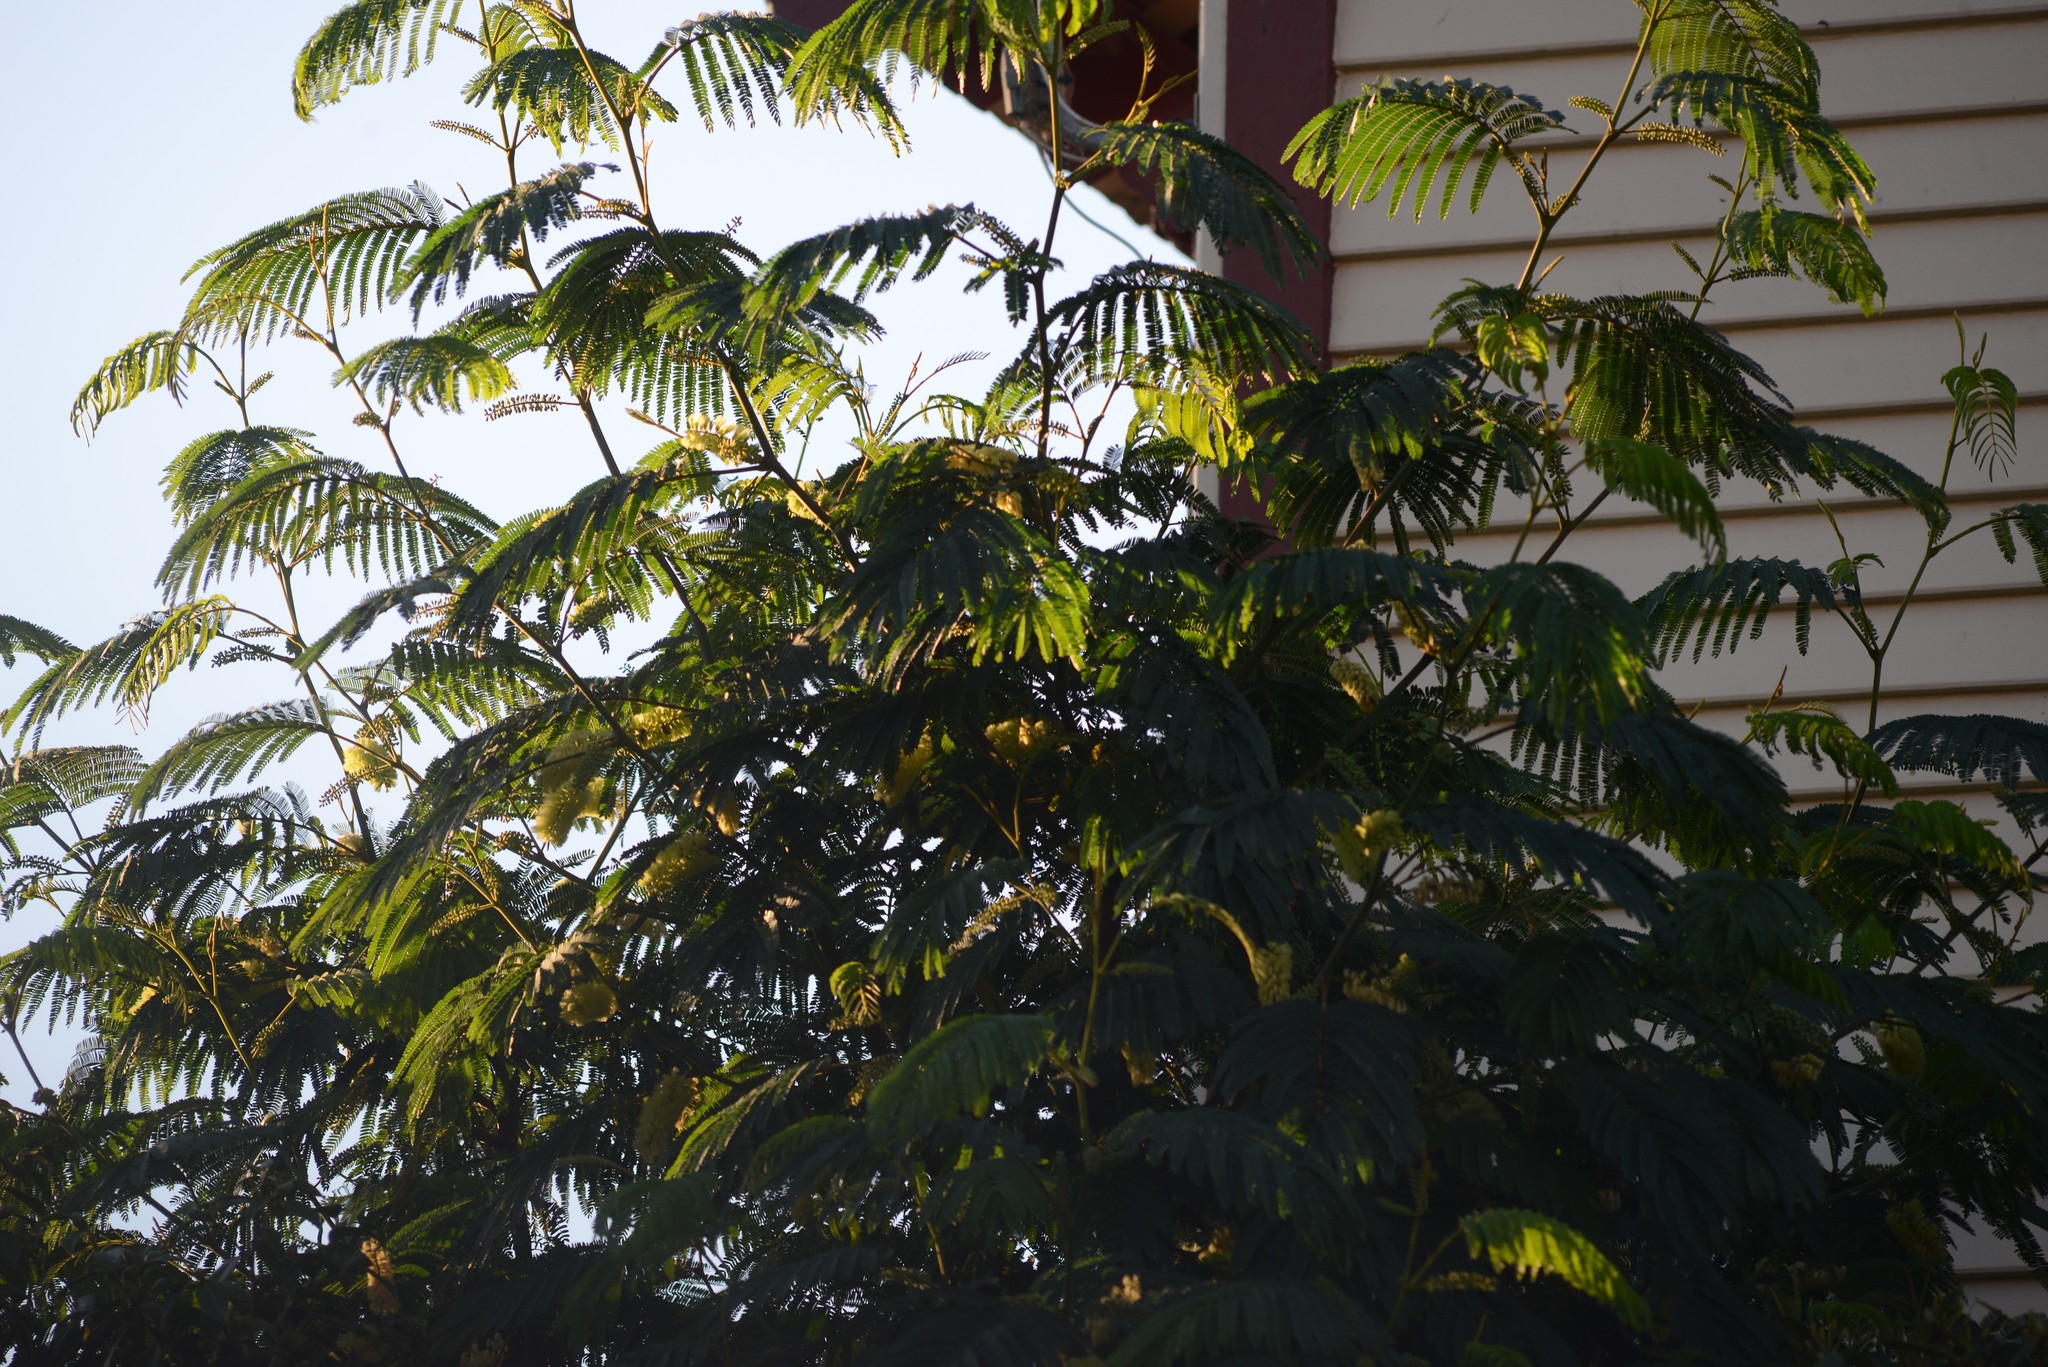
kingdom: Plantae
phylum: Tracheophyta
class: Magnoliopsida
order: Fabales
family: Fabaceae
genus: Paraserianthes
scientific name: Paraserianthes lophantha
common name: Plume albizia
